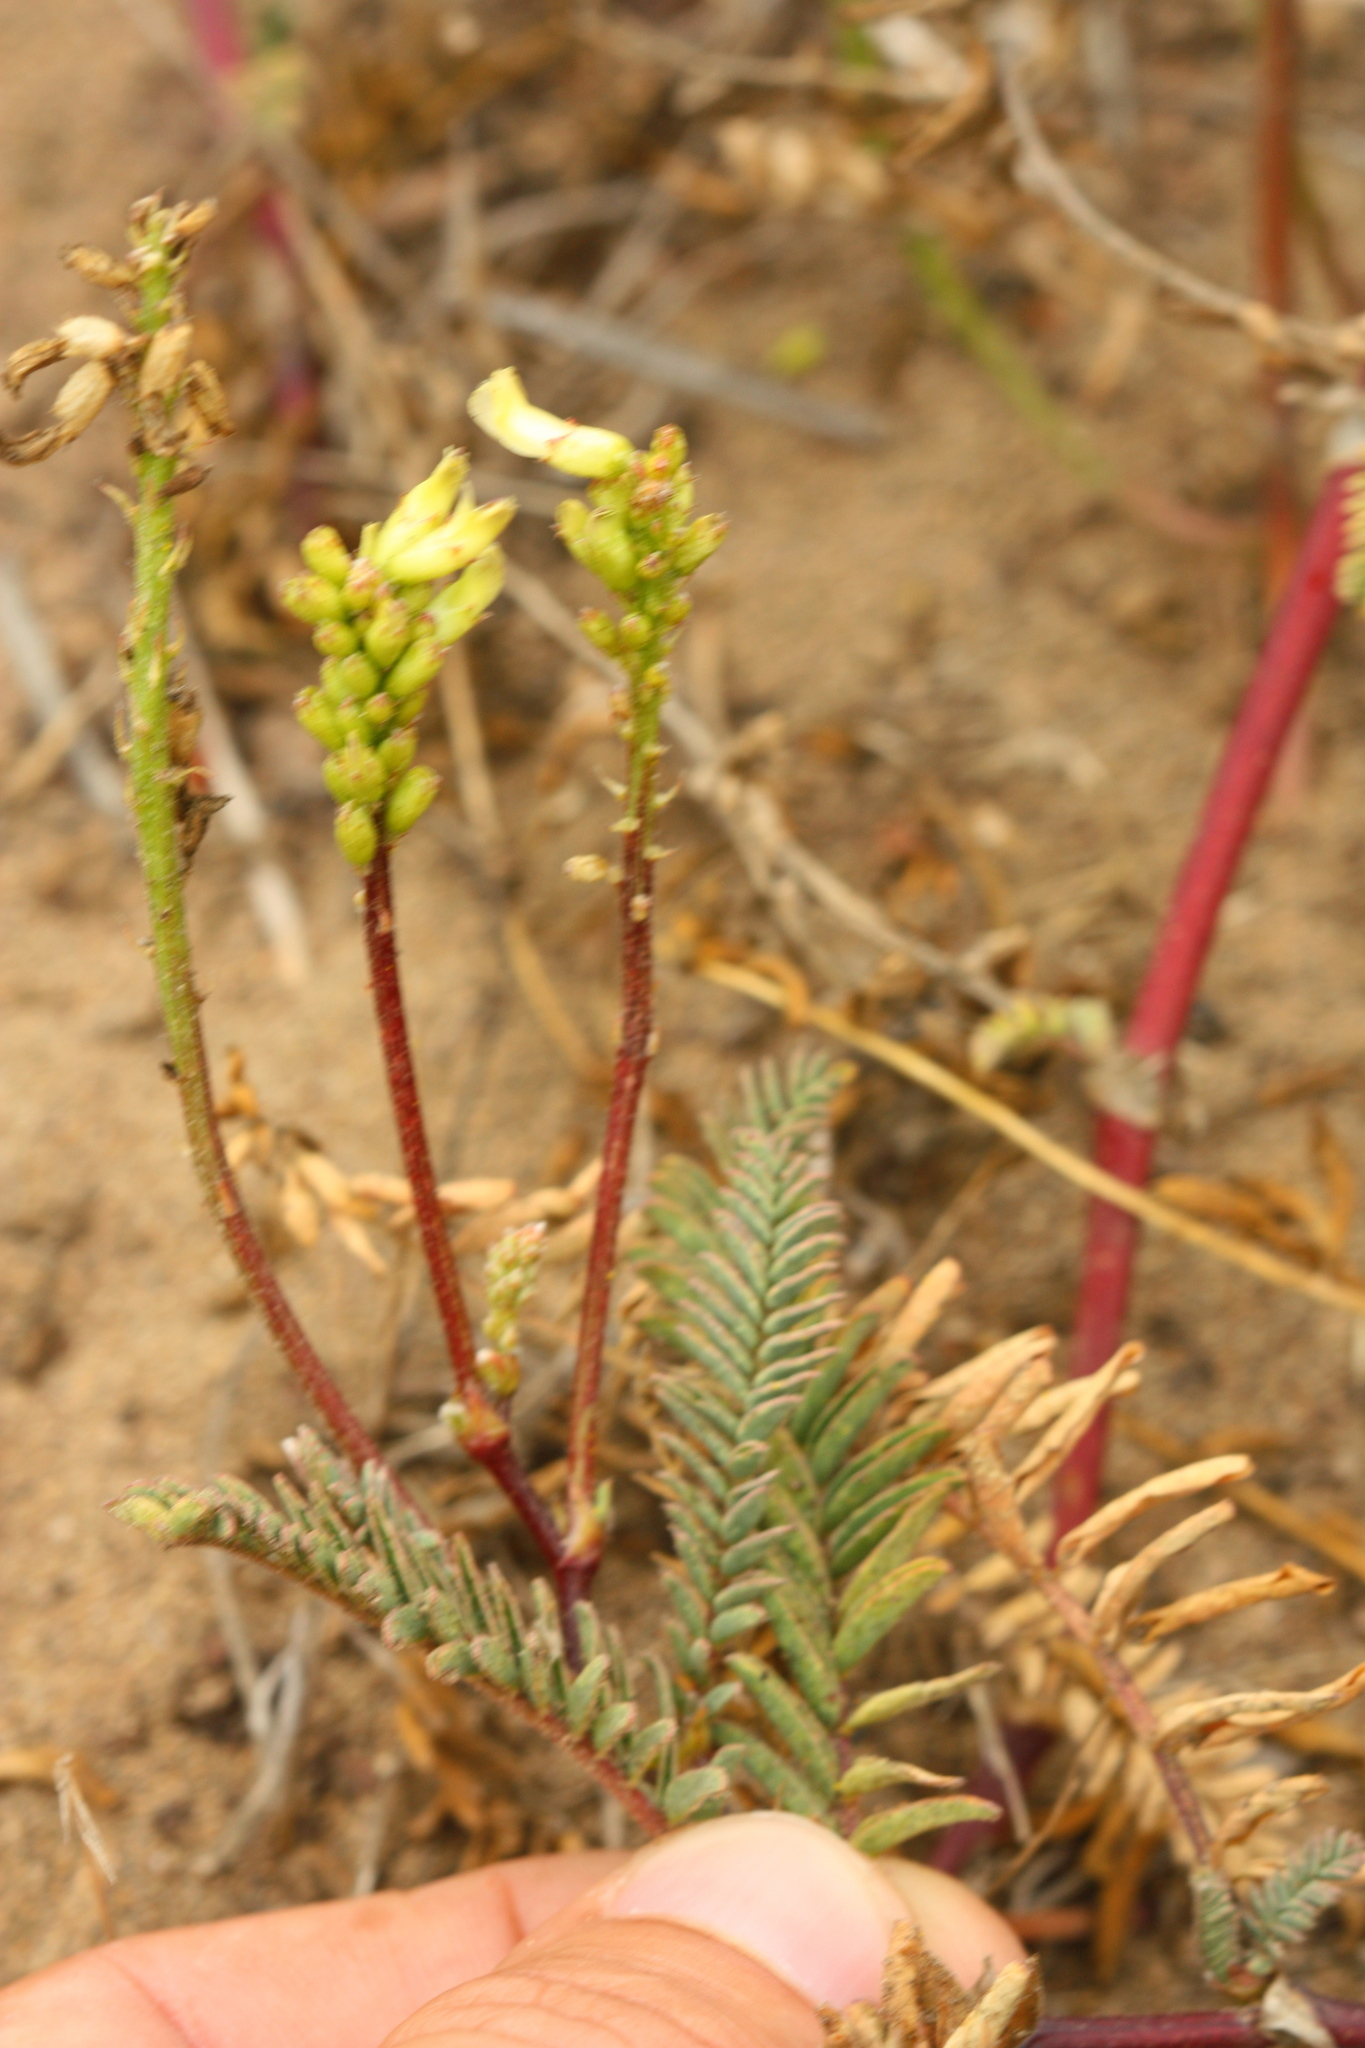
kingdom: Plantae
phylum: Tracheophyta
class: Magnoliopsida
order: Fabales
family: Fabaceae
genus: Astragalus
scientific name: Astragalus nuttallii
